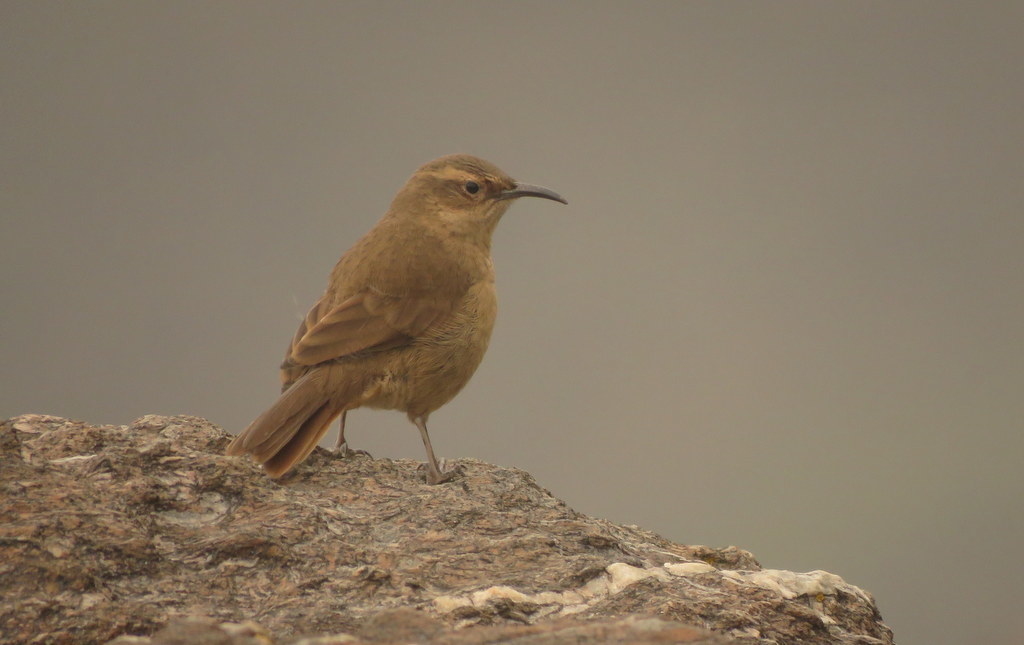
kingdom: Animalia
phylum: Chordata
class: Aves
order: Passeriformes
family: Furnariidae
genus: Upucerthia
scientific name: Upucerthia validirostris
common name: Buff-breasted earthcreeper
